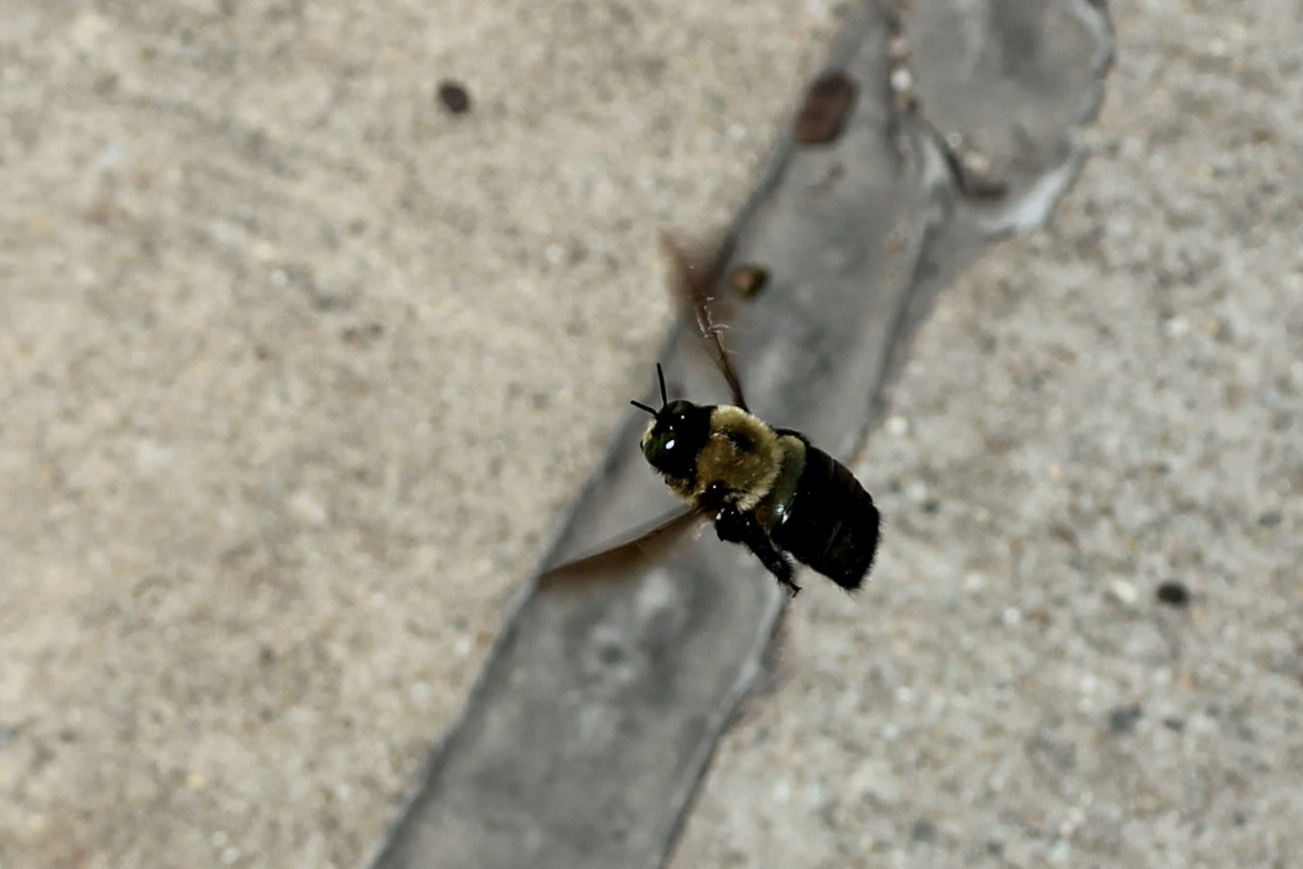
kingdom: Animalia
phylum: Arthropoda
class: Insecta
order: Hymenoptera
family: Apidae
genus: Xylocopa
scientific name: Xylocopa virginica
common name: Carpenter bee
